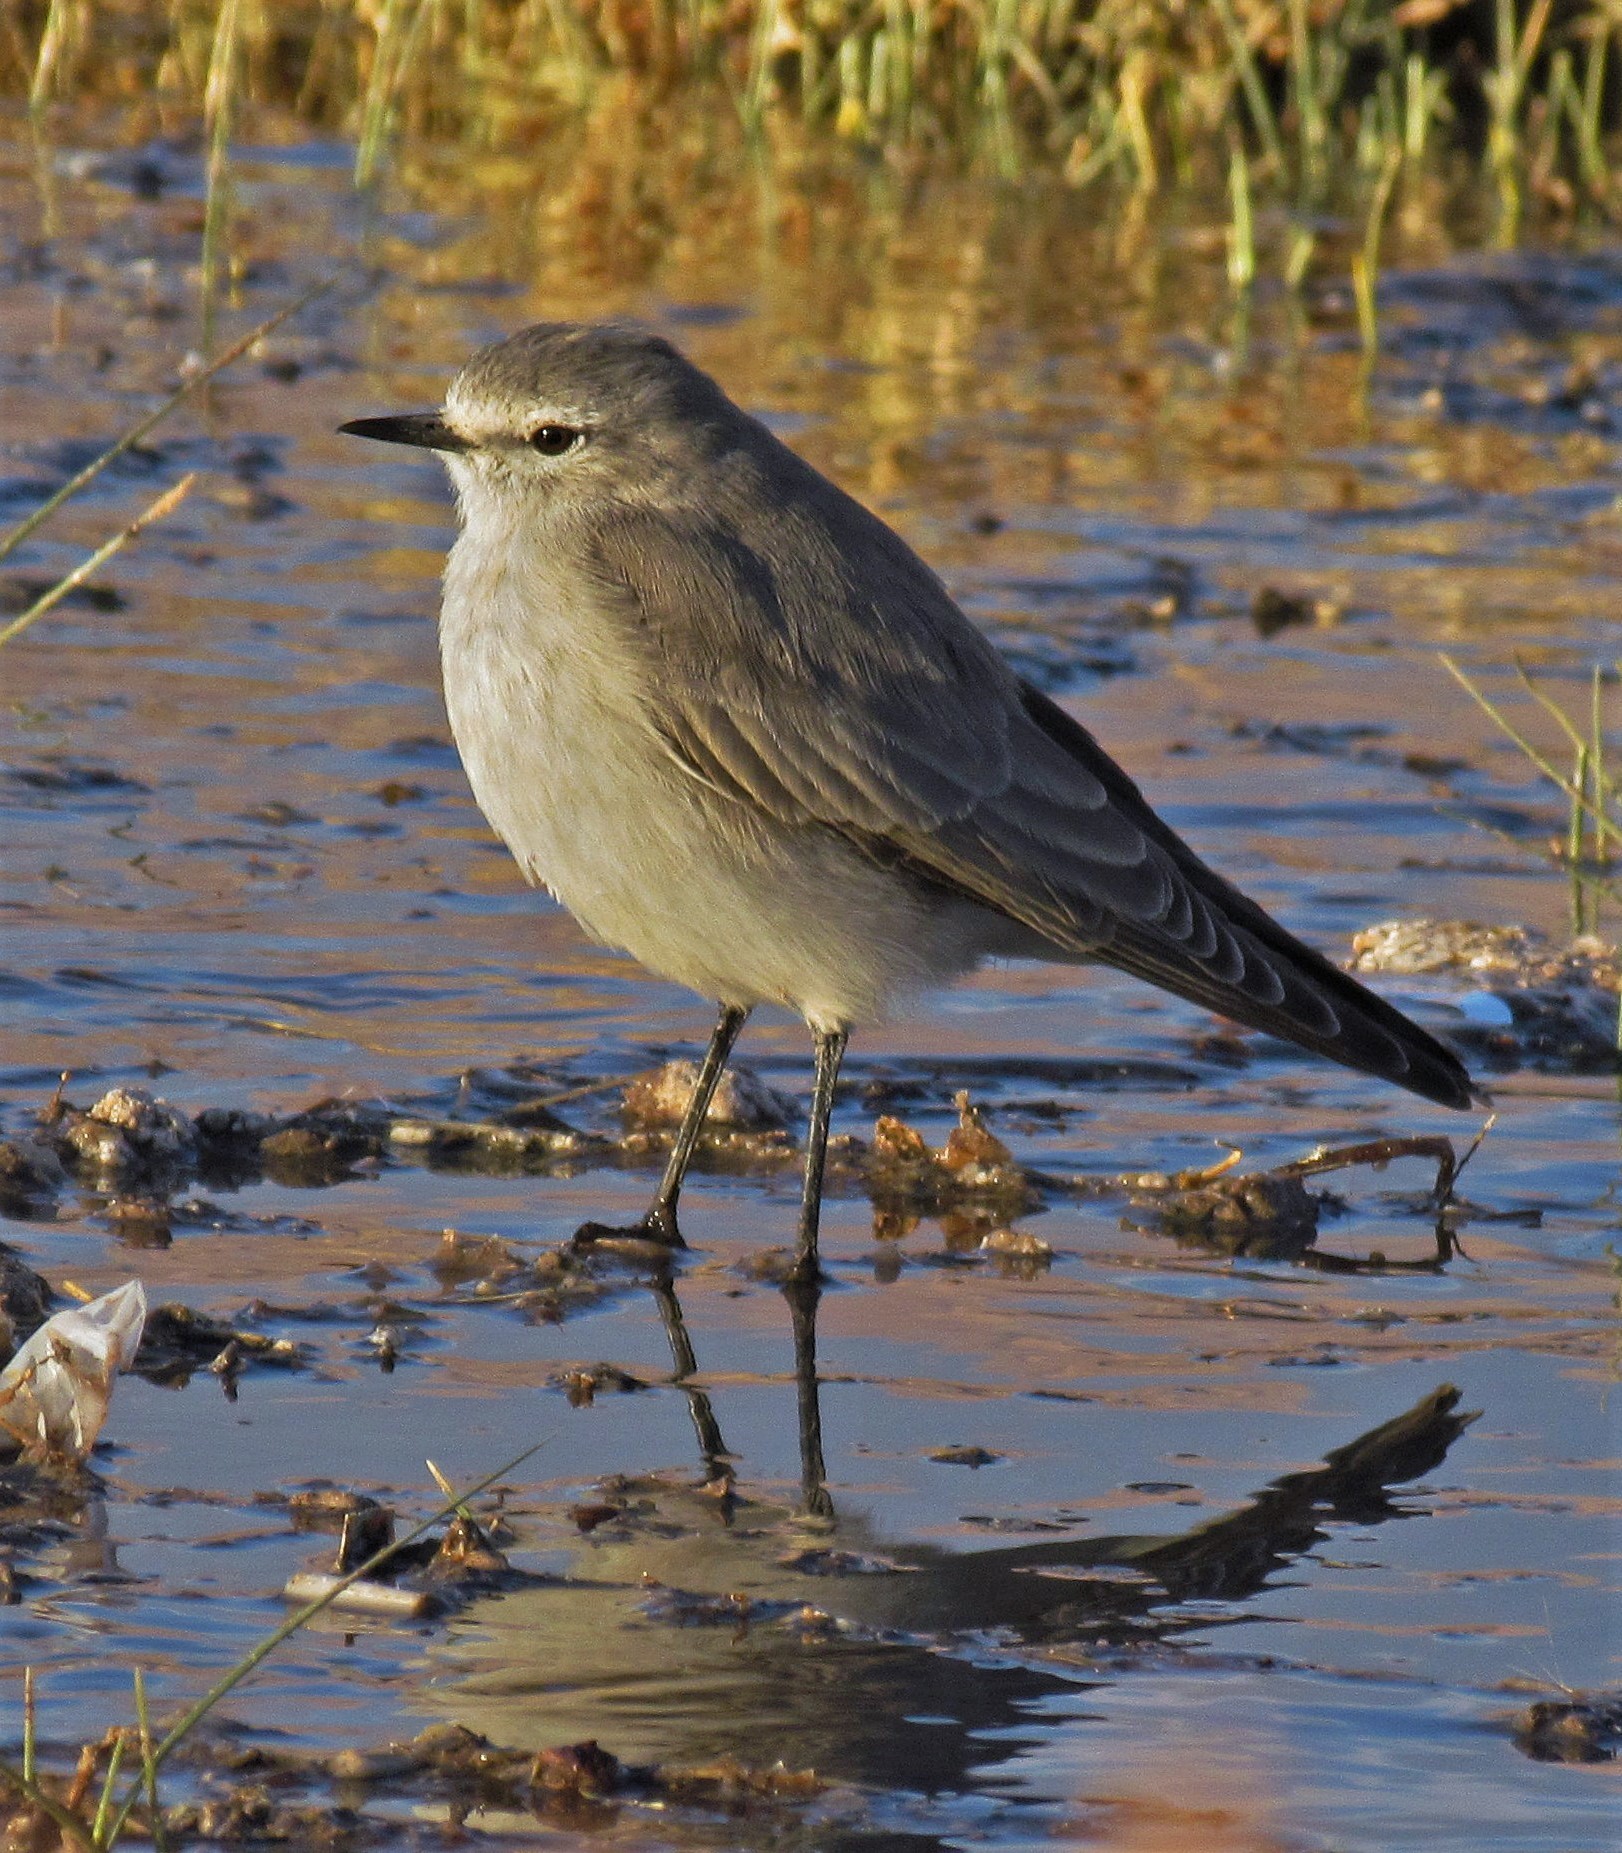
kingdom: Animalia
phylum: Chordata
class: Aves
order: Passeriformes
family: Tyrannidae
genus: Muscisaxicola
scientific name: Muscisaxicola flavinucha
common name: Ochre-naped ground tyrant
